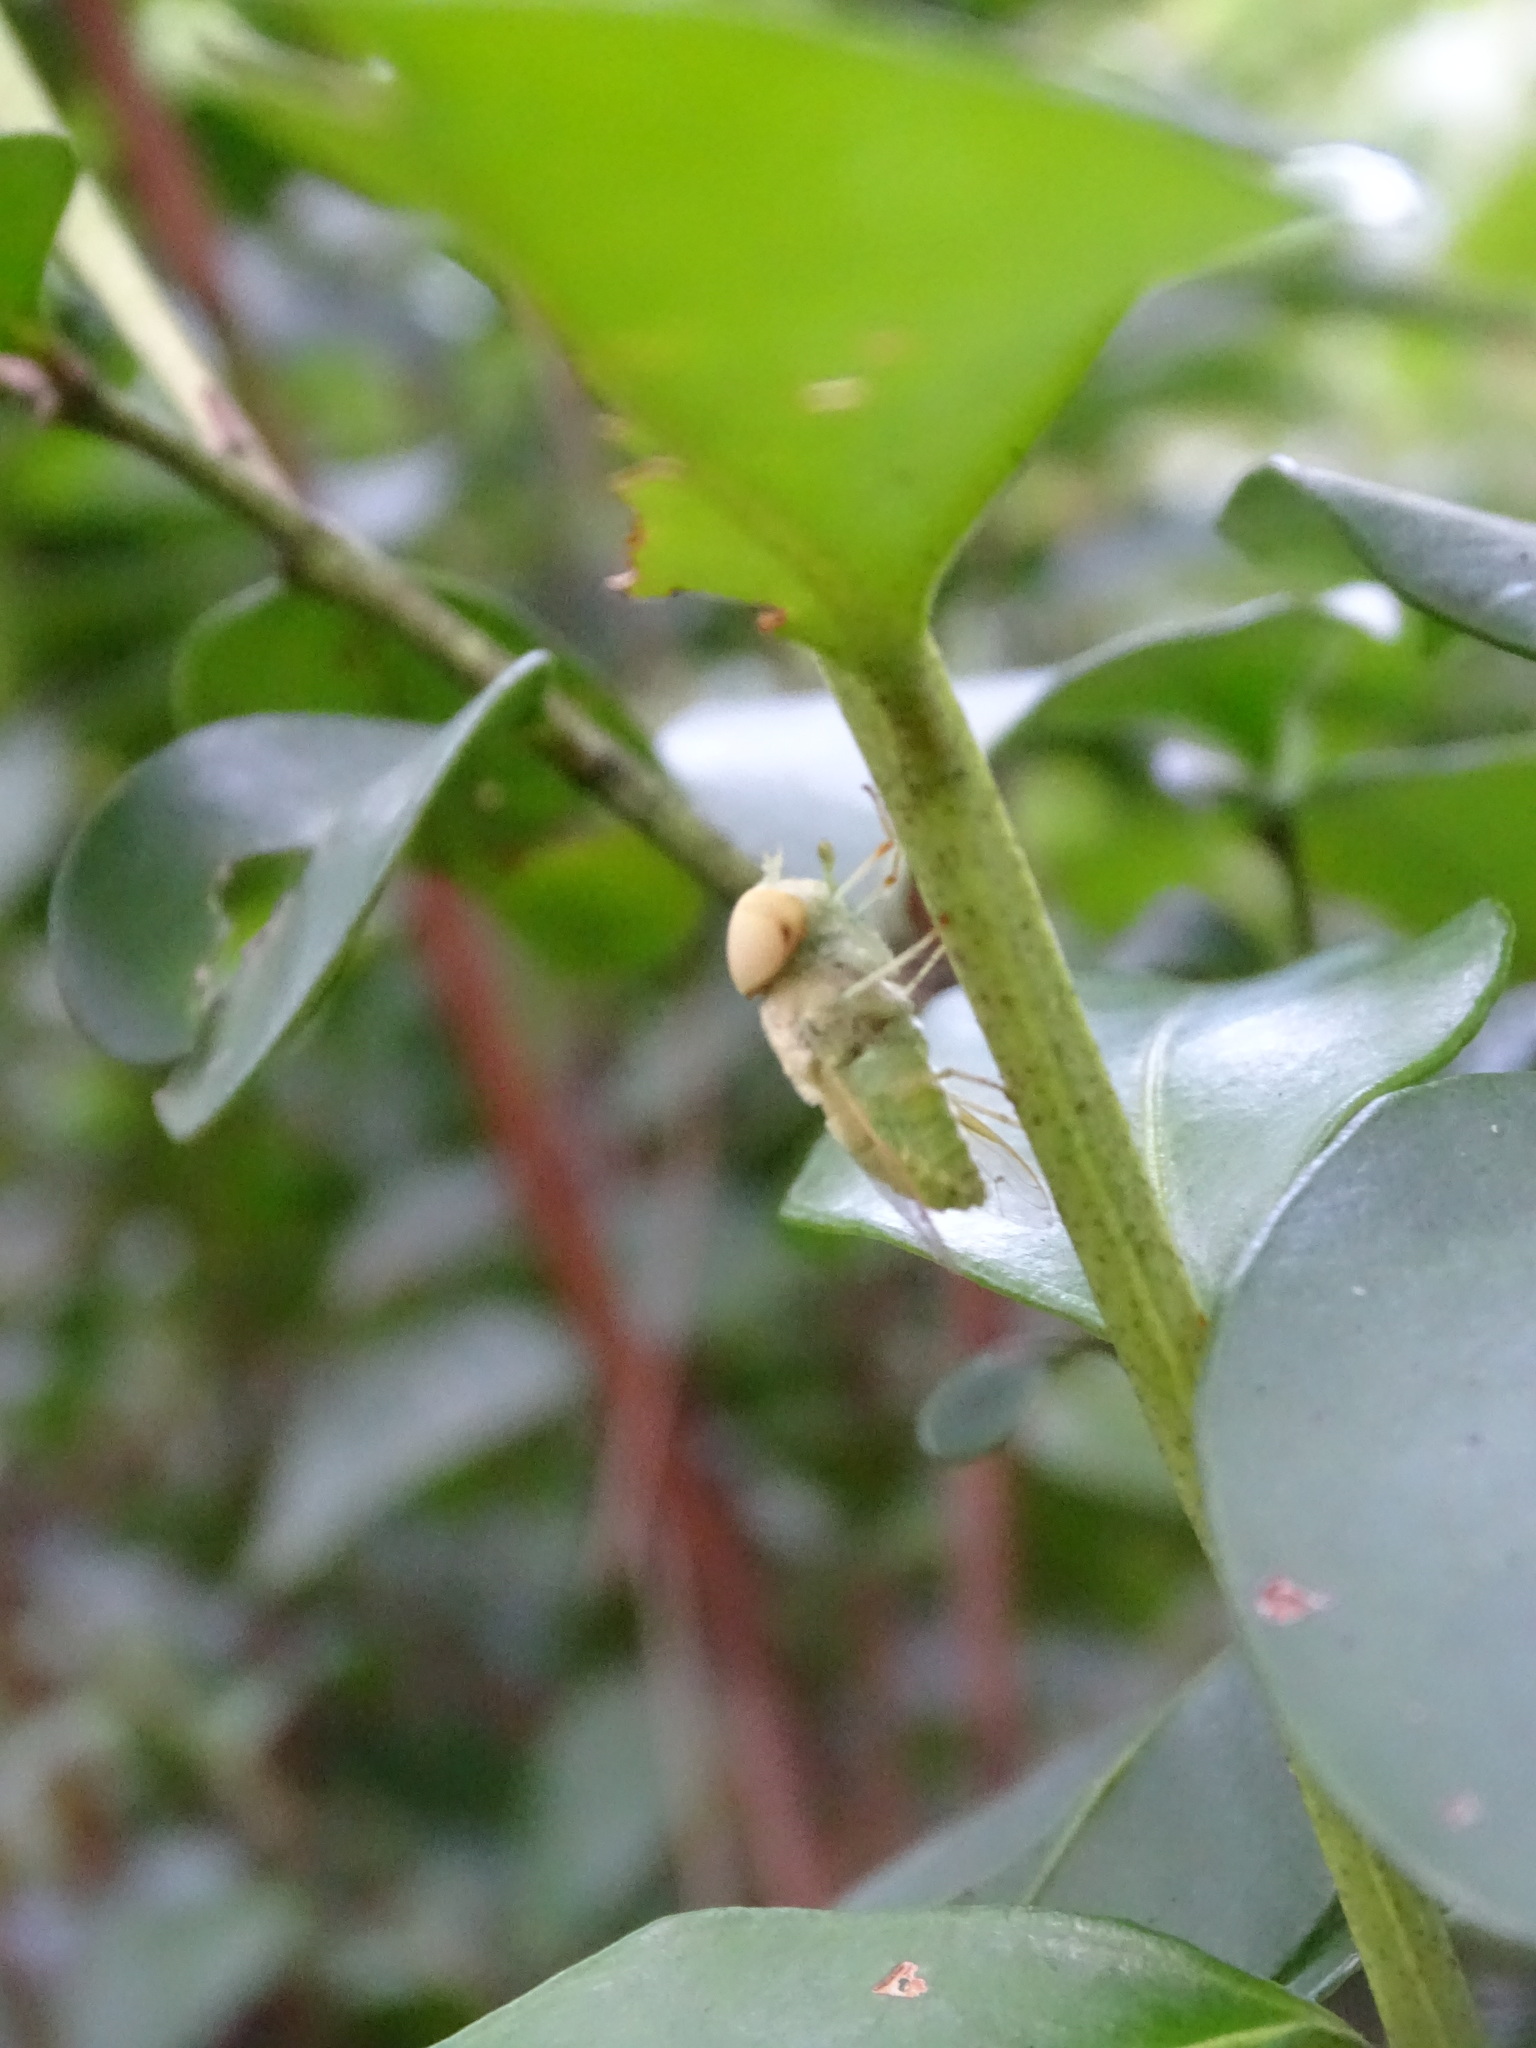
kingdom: Animalia
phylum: Arthropoda
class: Insecta
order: Diptera
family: Tabanidae
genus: Chlorotabanus
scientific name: Chlorotabanus crepuscularis
